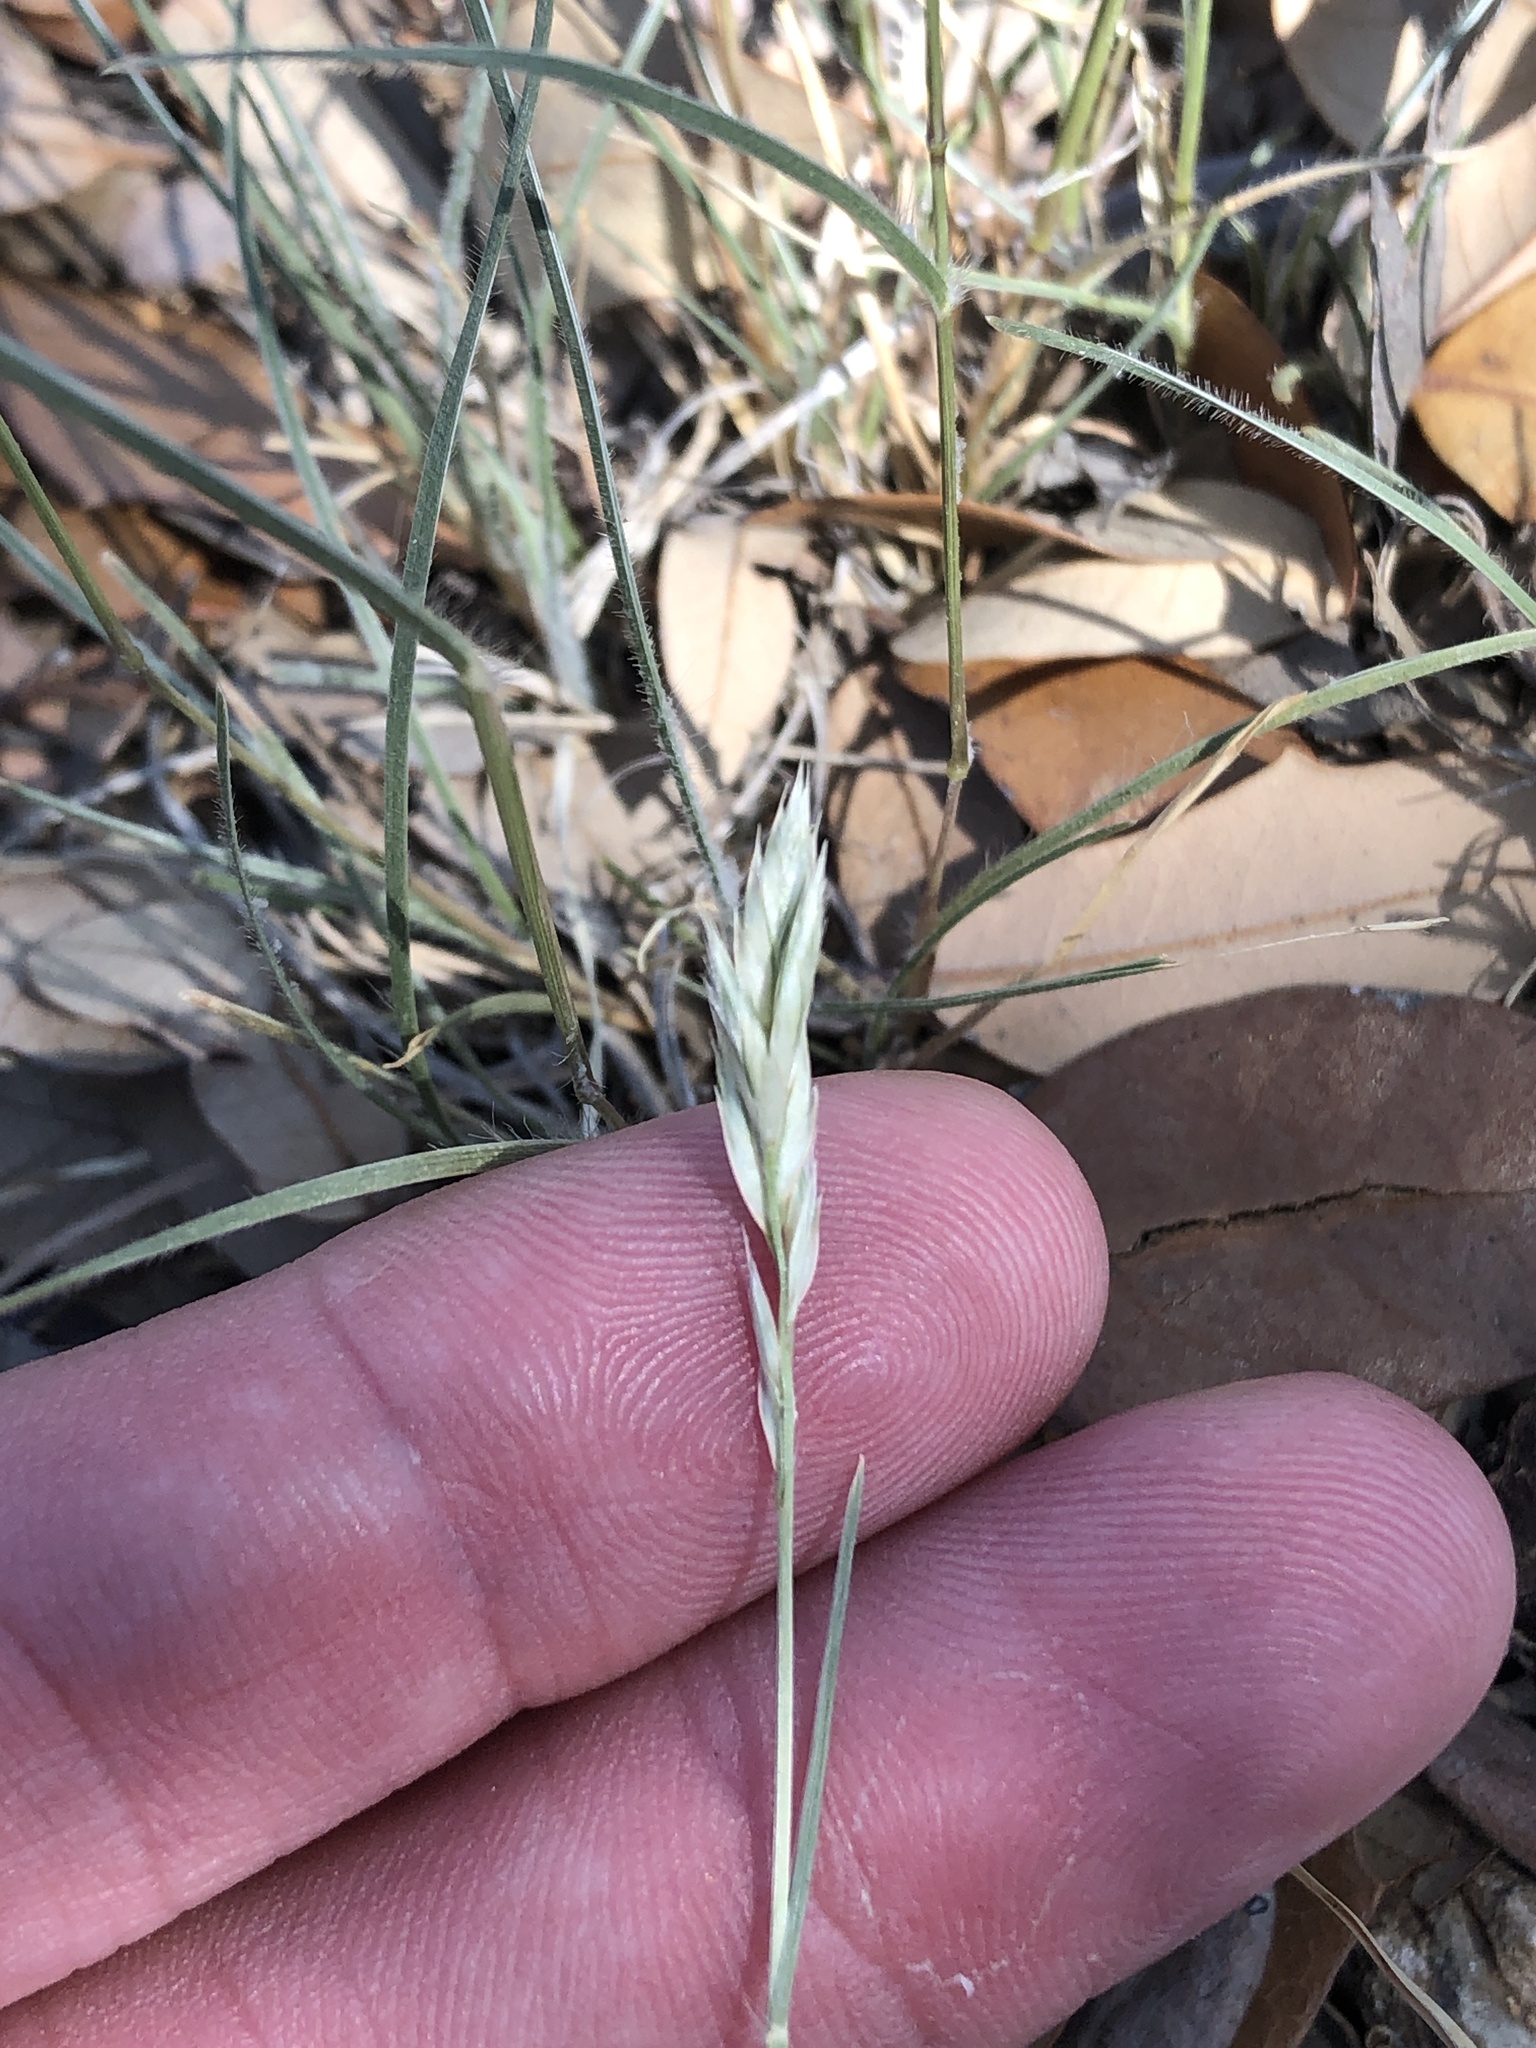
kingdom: Plantae
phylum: Tracheophyta
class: Liliopsida
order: Poales
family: Poaceae
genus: Erioneuron
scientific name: Erioneuron pilosum
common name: Hairy woolly grass
